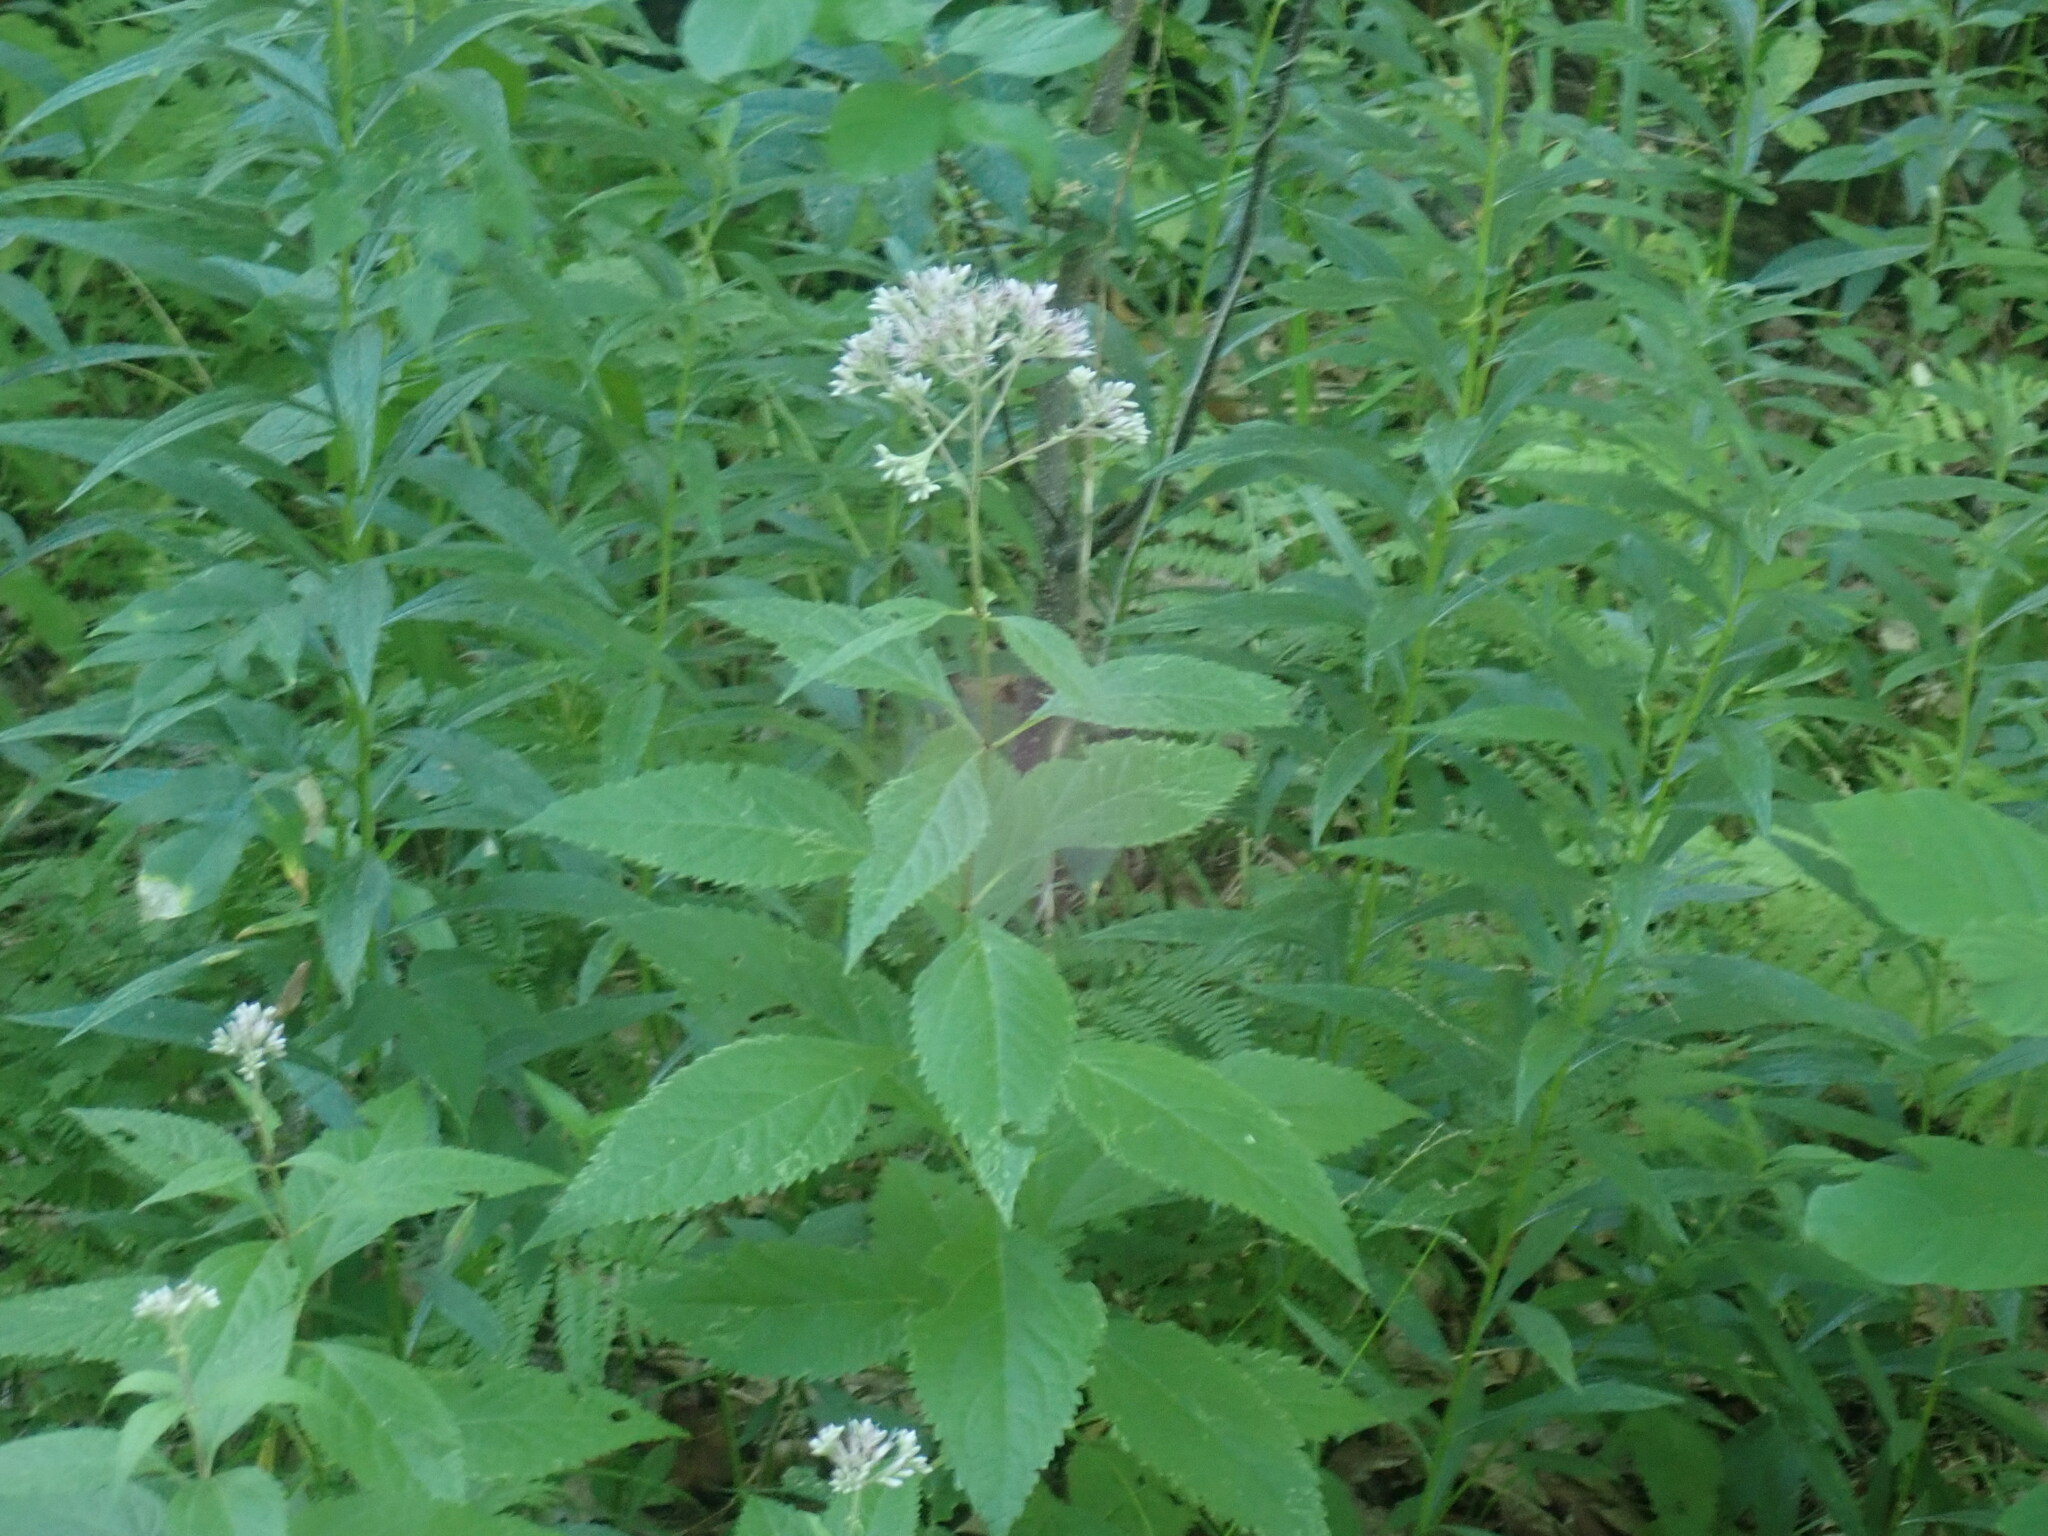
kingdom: Plantae
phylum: Tracheophyta
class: Magnoliopsida
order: Asterales
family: Asteraceae
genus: Eutrochium
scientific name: Eutrochium
